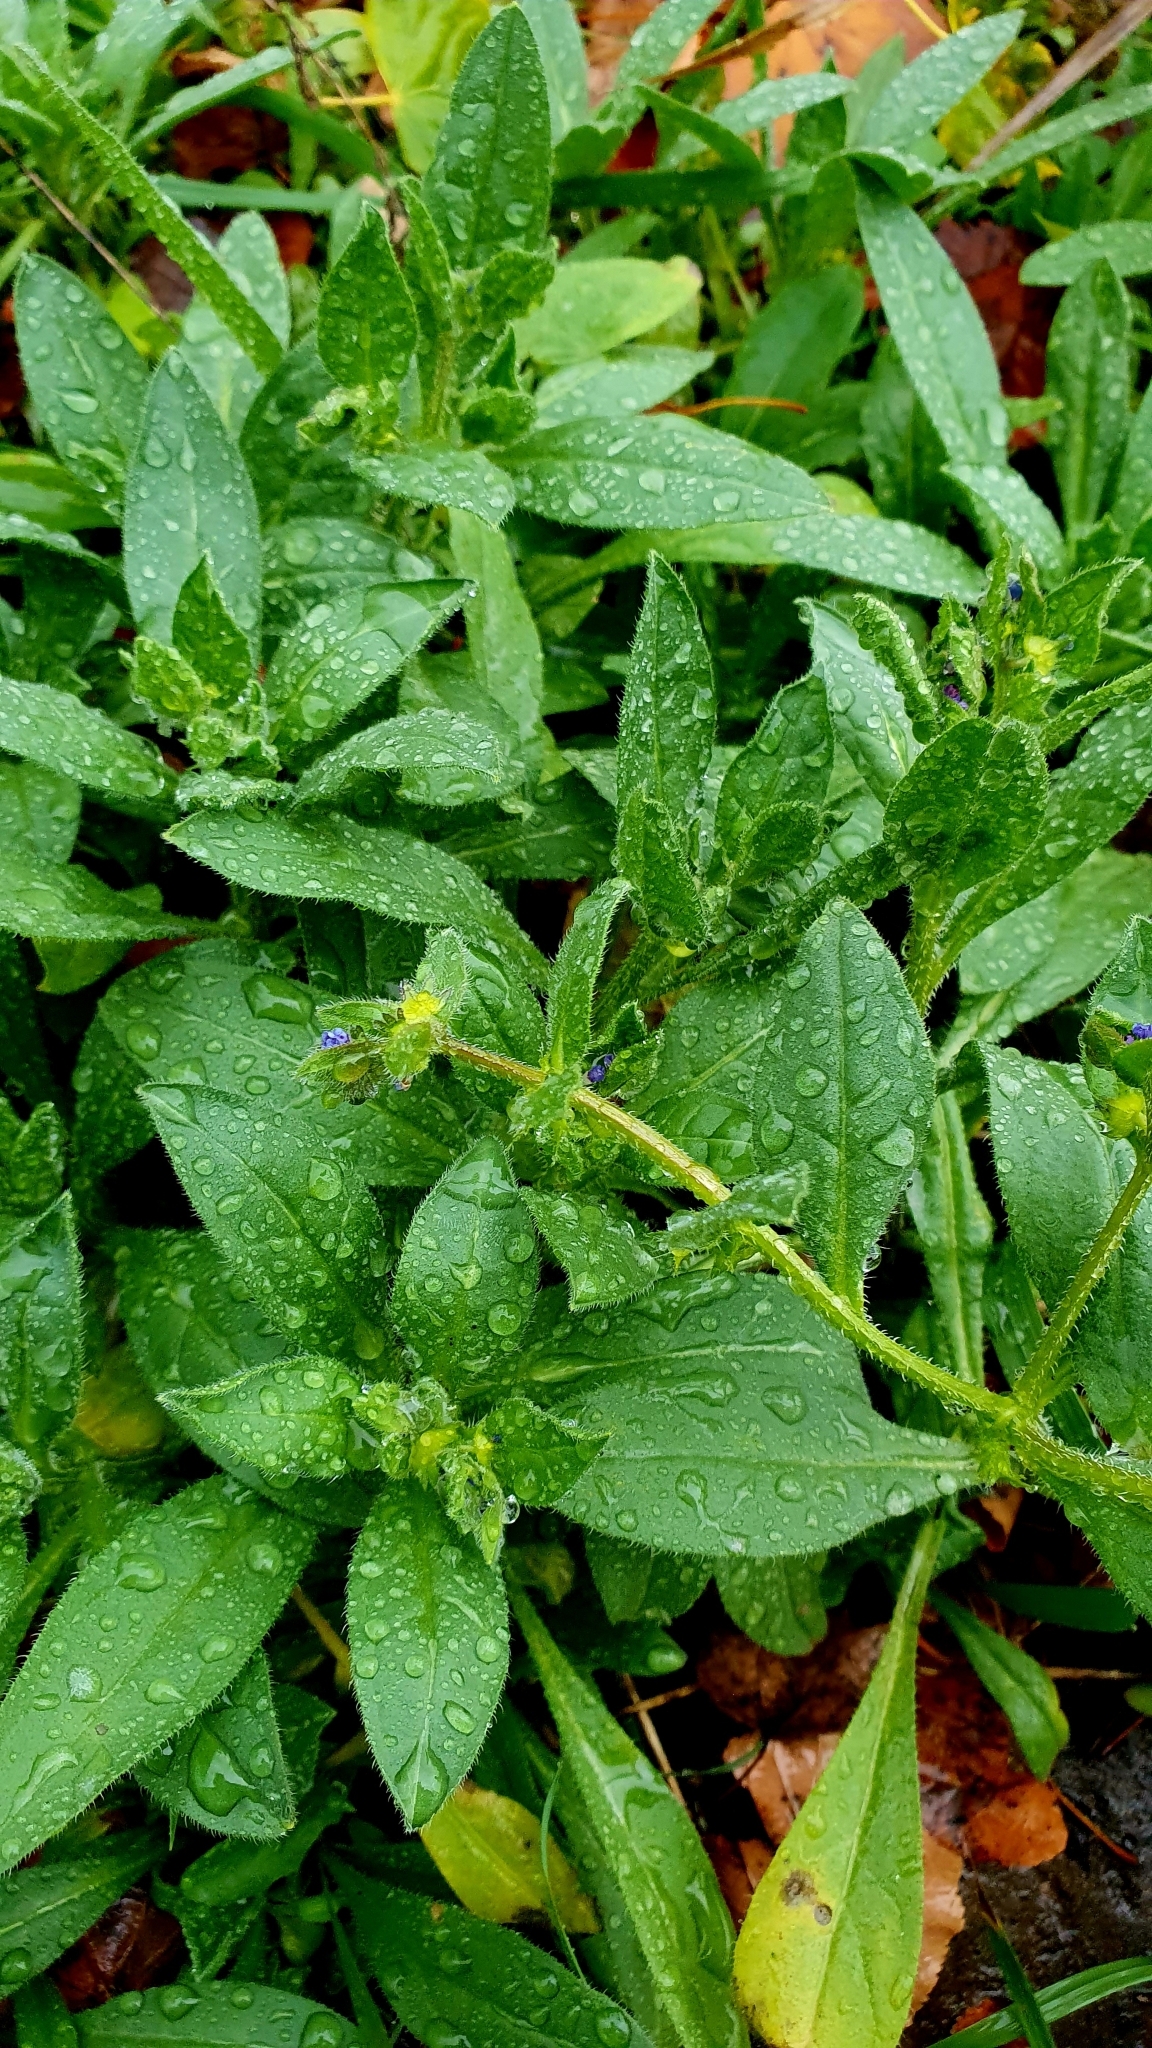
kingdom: Plantae
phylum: Tracheophyta
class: Magnoliopsida
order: Boraginales
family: Boraginaceae
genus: Asperugo
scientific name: Asperugo procumbens
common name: Madwort
